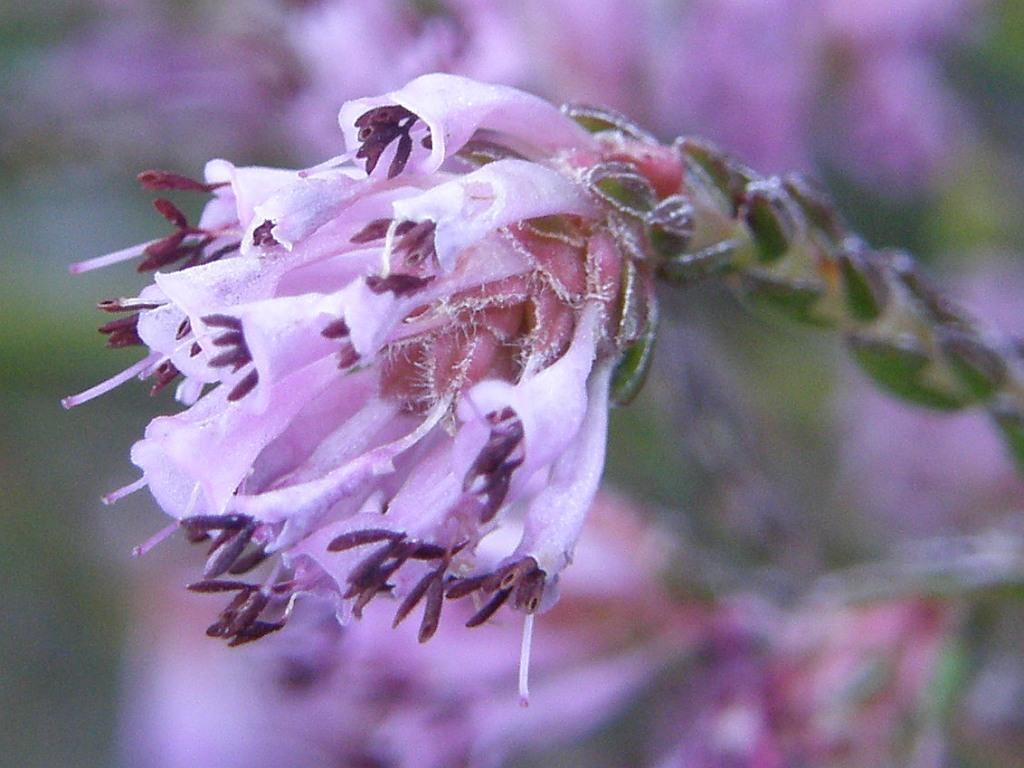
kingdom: Plantae
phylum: Tracheophyta
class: Magnoliopsida
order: Ericales
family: Ericaceae
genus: Erica
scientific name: Erica labialis
